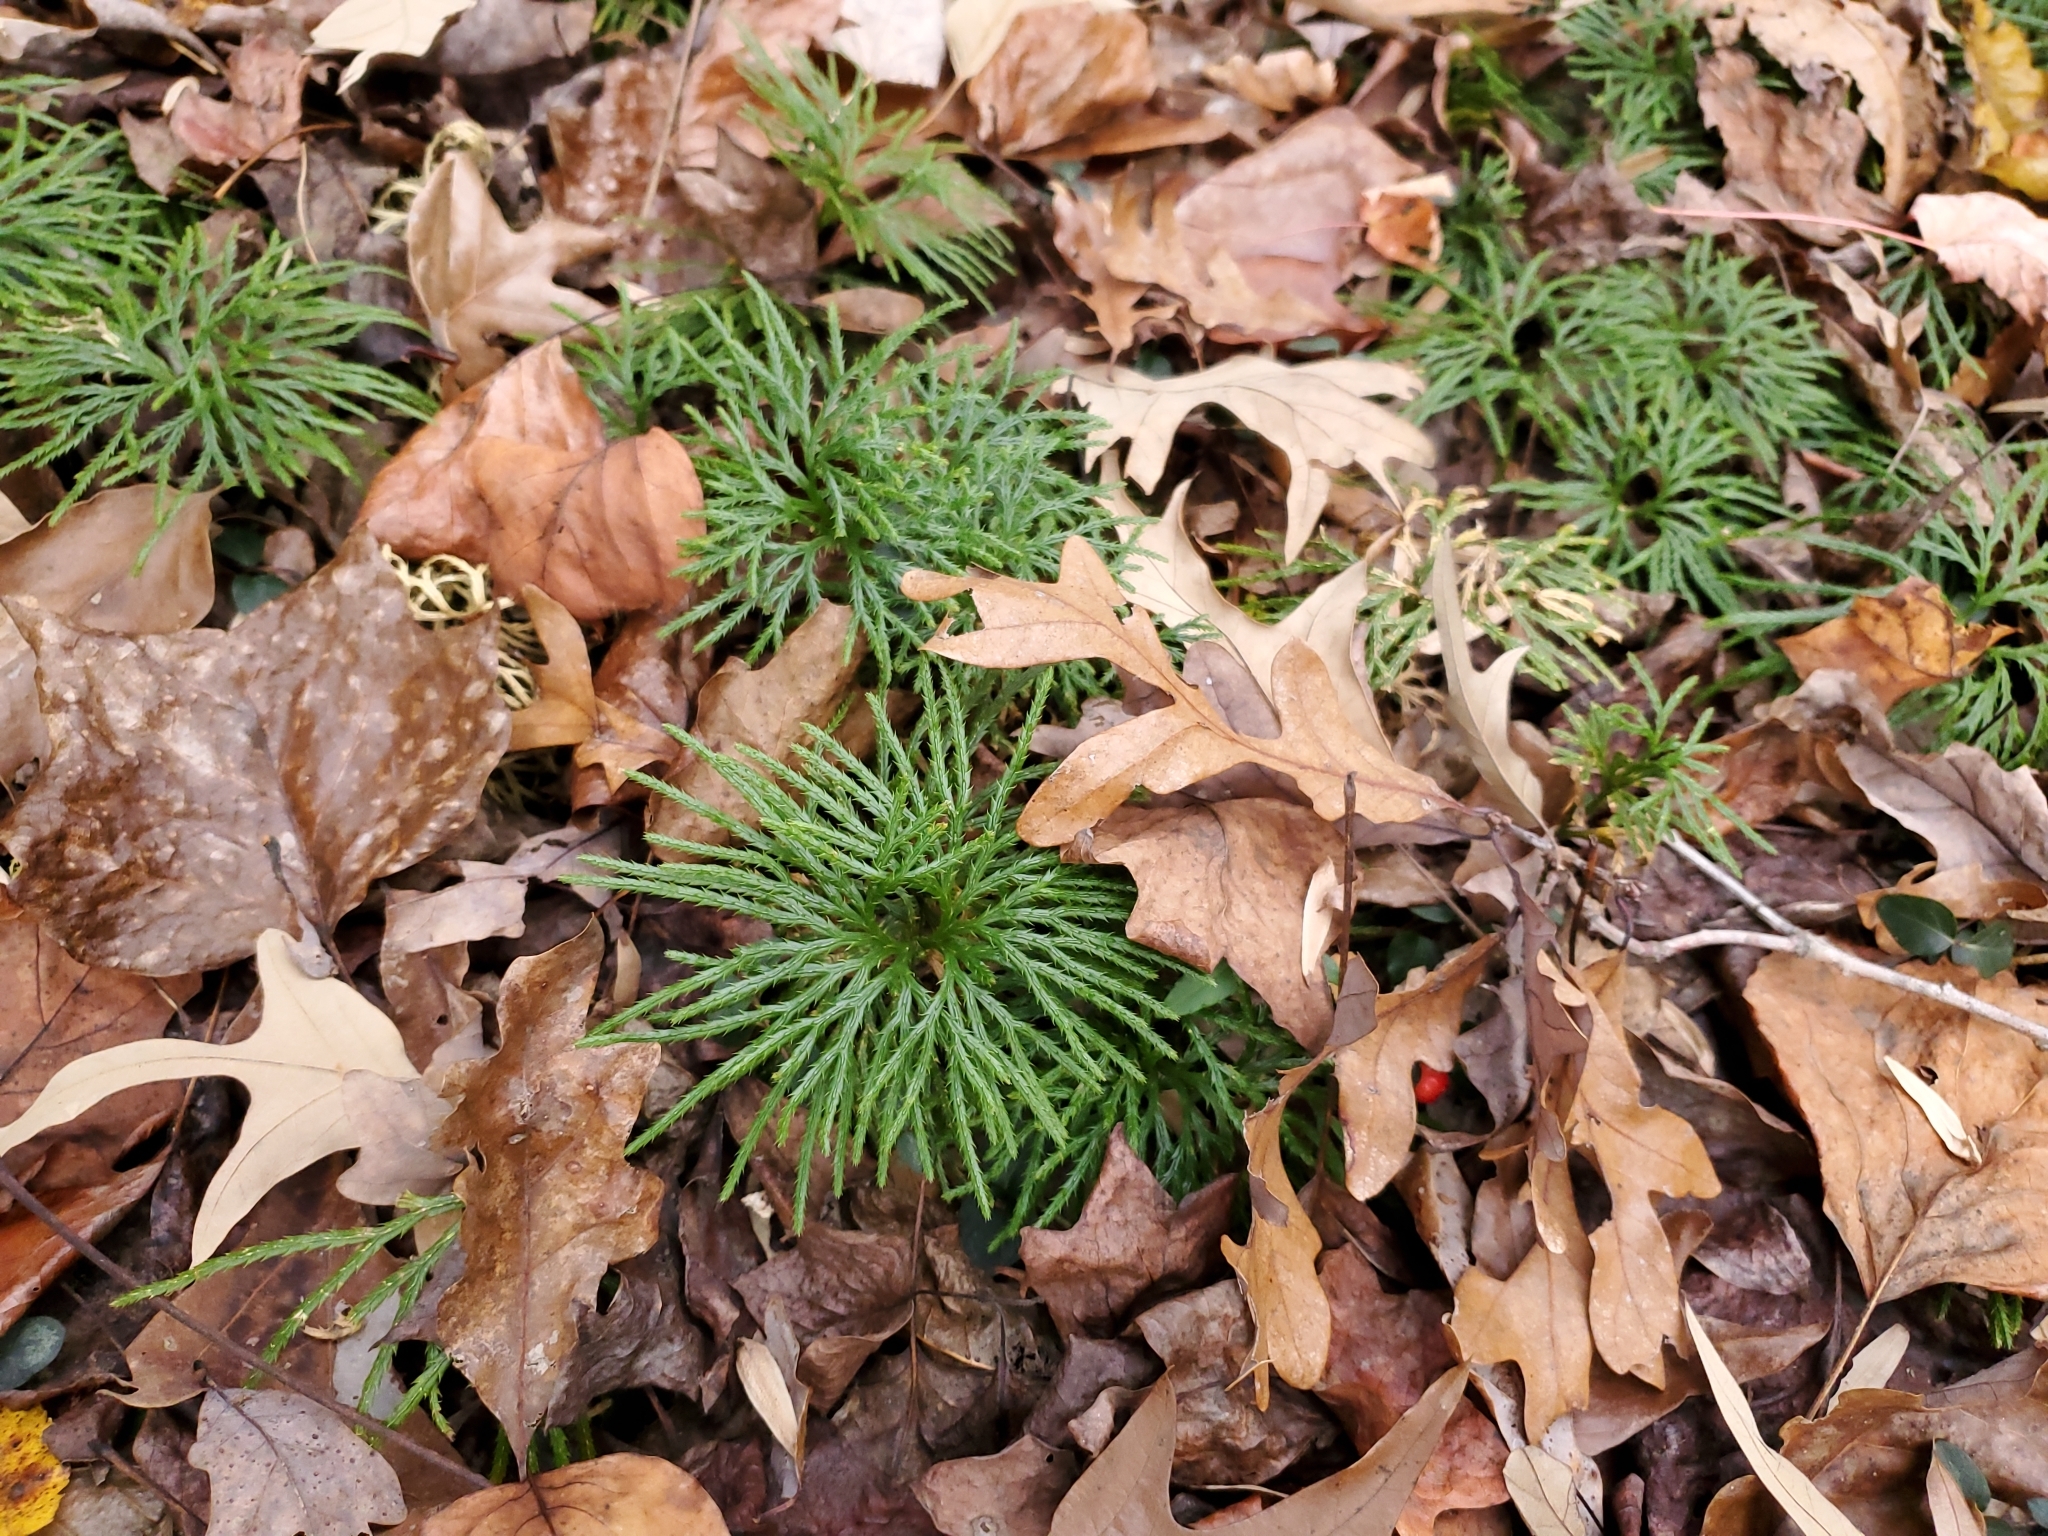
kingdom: Plantae
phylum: Tracheophyta
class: Lycopodiopsida
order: Lycopodiales
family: Lycopodiaceae
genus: Diphasiastrum
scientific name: Diphasiastrum digitatum
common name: Southern running-pine
